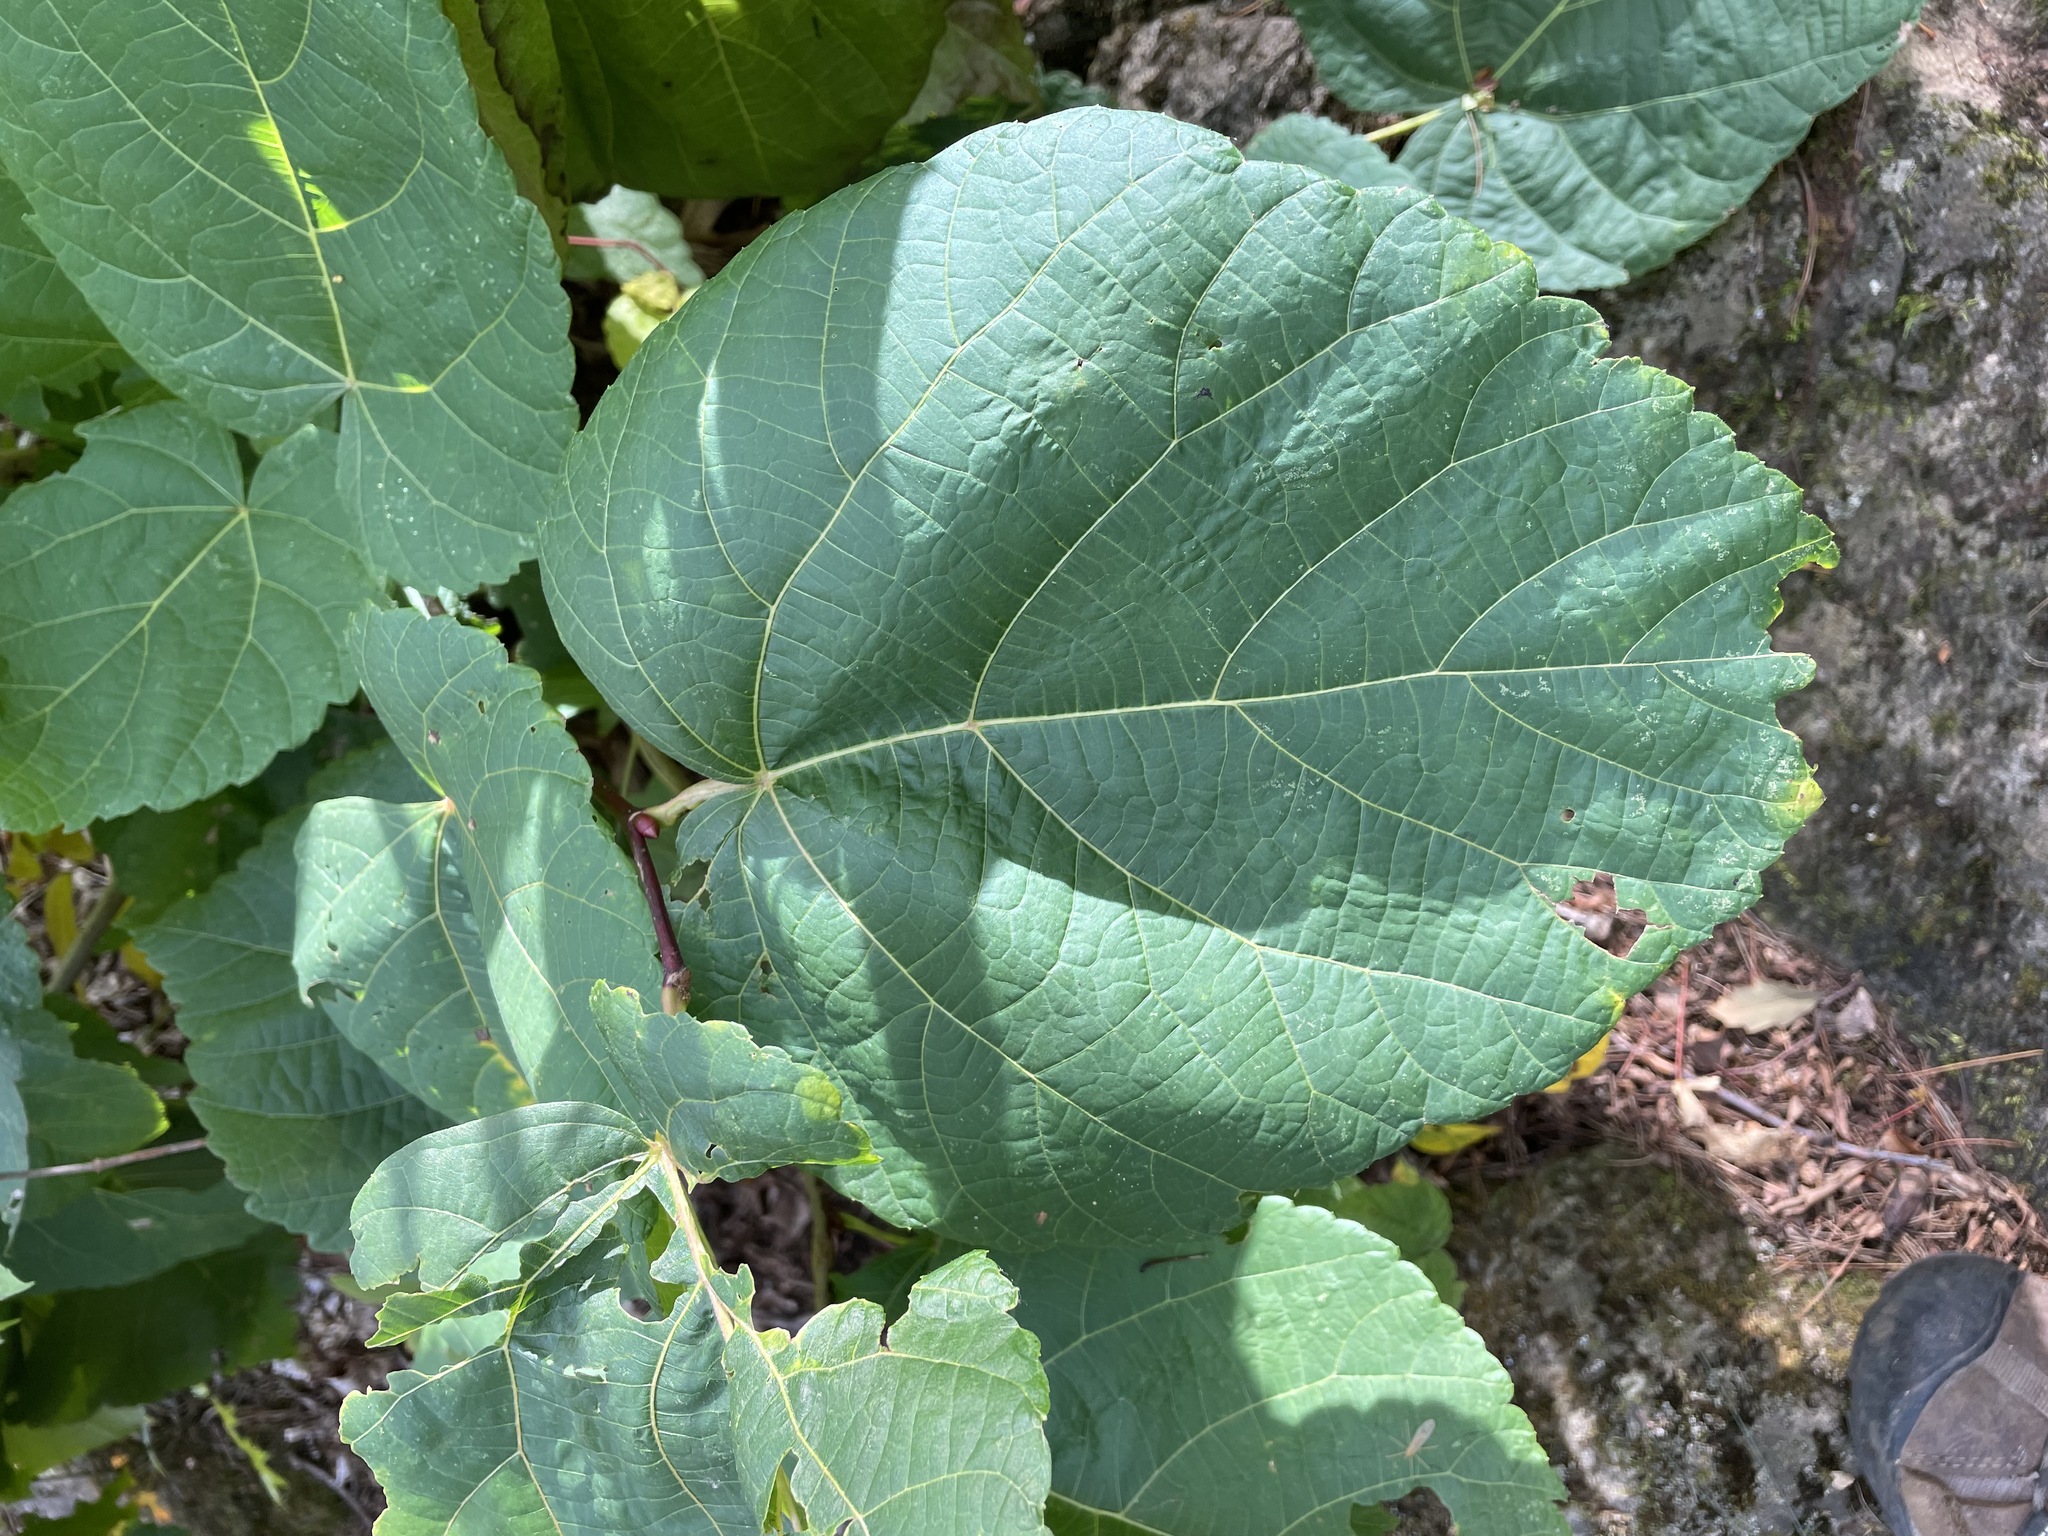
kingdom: Plantae
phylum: Tracheophyta
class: Magnoliopsida
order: Malvales
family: Malvaceae
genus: Tilia
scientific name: Tilia americana
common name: Basswood
